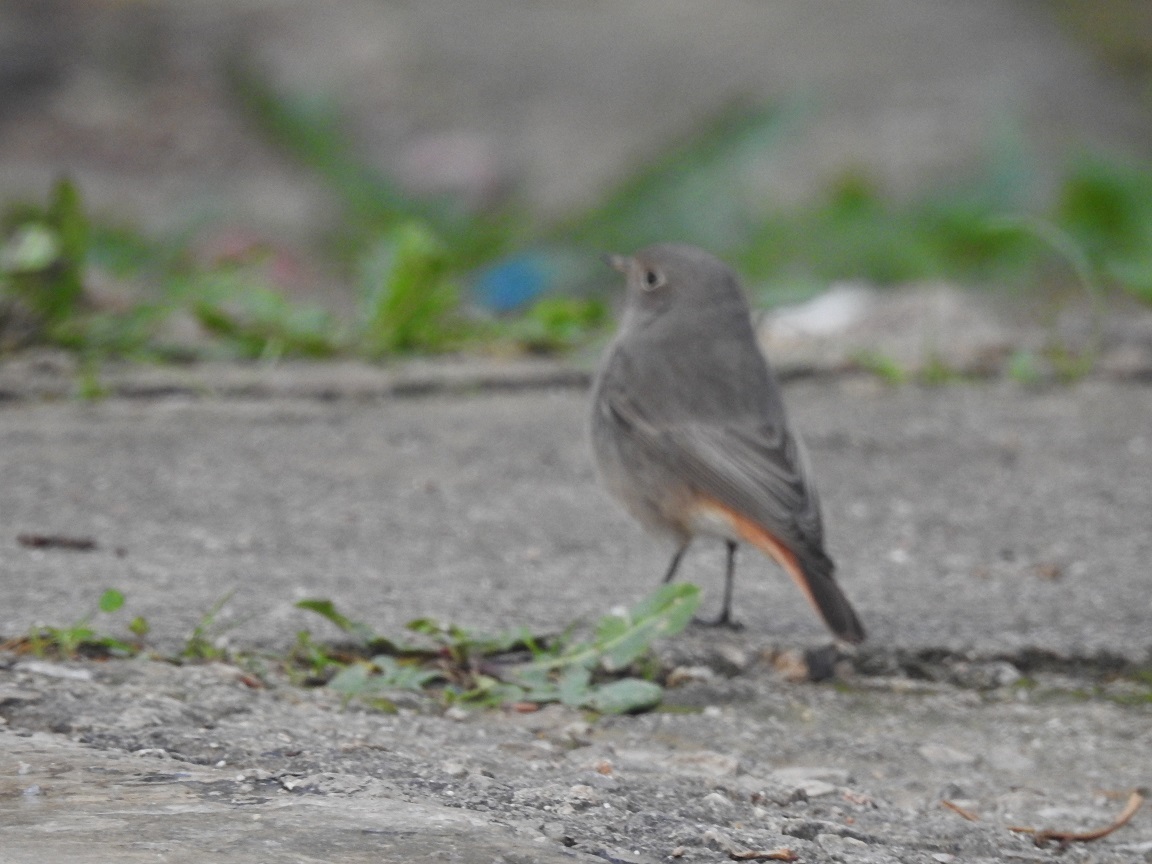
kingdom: Animalia
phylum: Chordata
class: Aves
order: Passeriformes
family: Muscicapidae
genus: Phoenicurus
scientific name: Phoenicurus ochruros
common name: Black redstart
